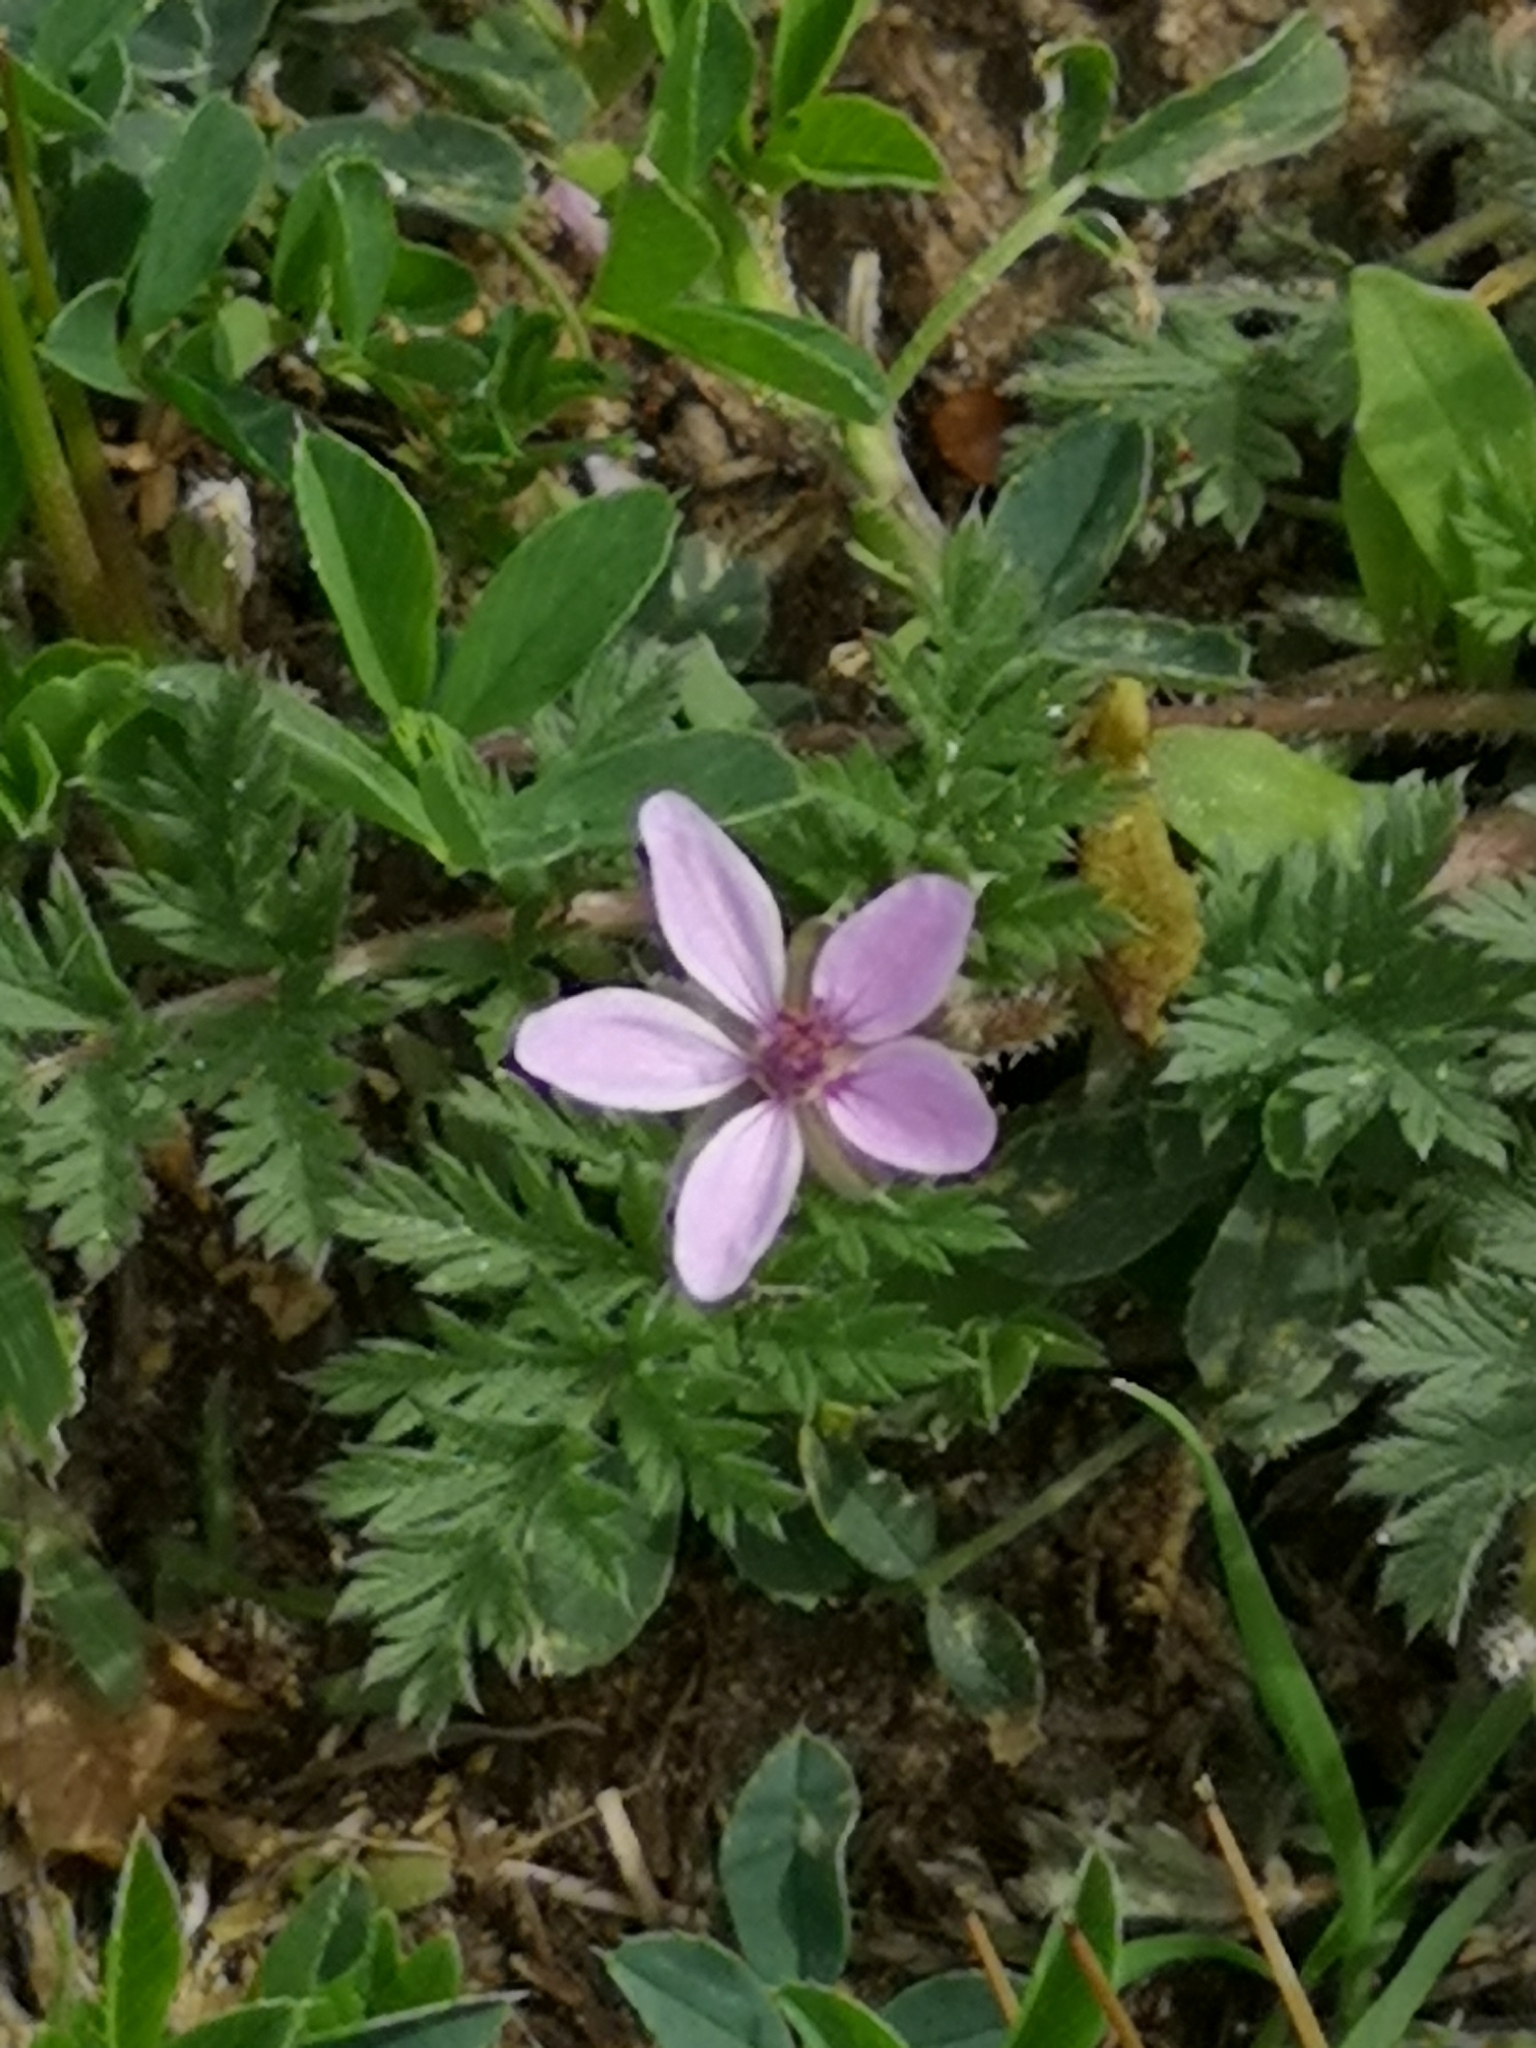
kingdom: Plantae
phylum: Tracheophyta
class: Magnoliopsida
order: Geraniales
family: Geraniaceae
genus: Erodium
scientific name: Erodium cicutarium
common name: Common stork's-bill
